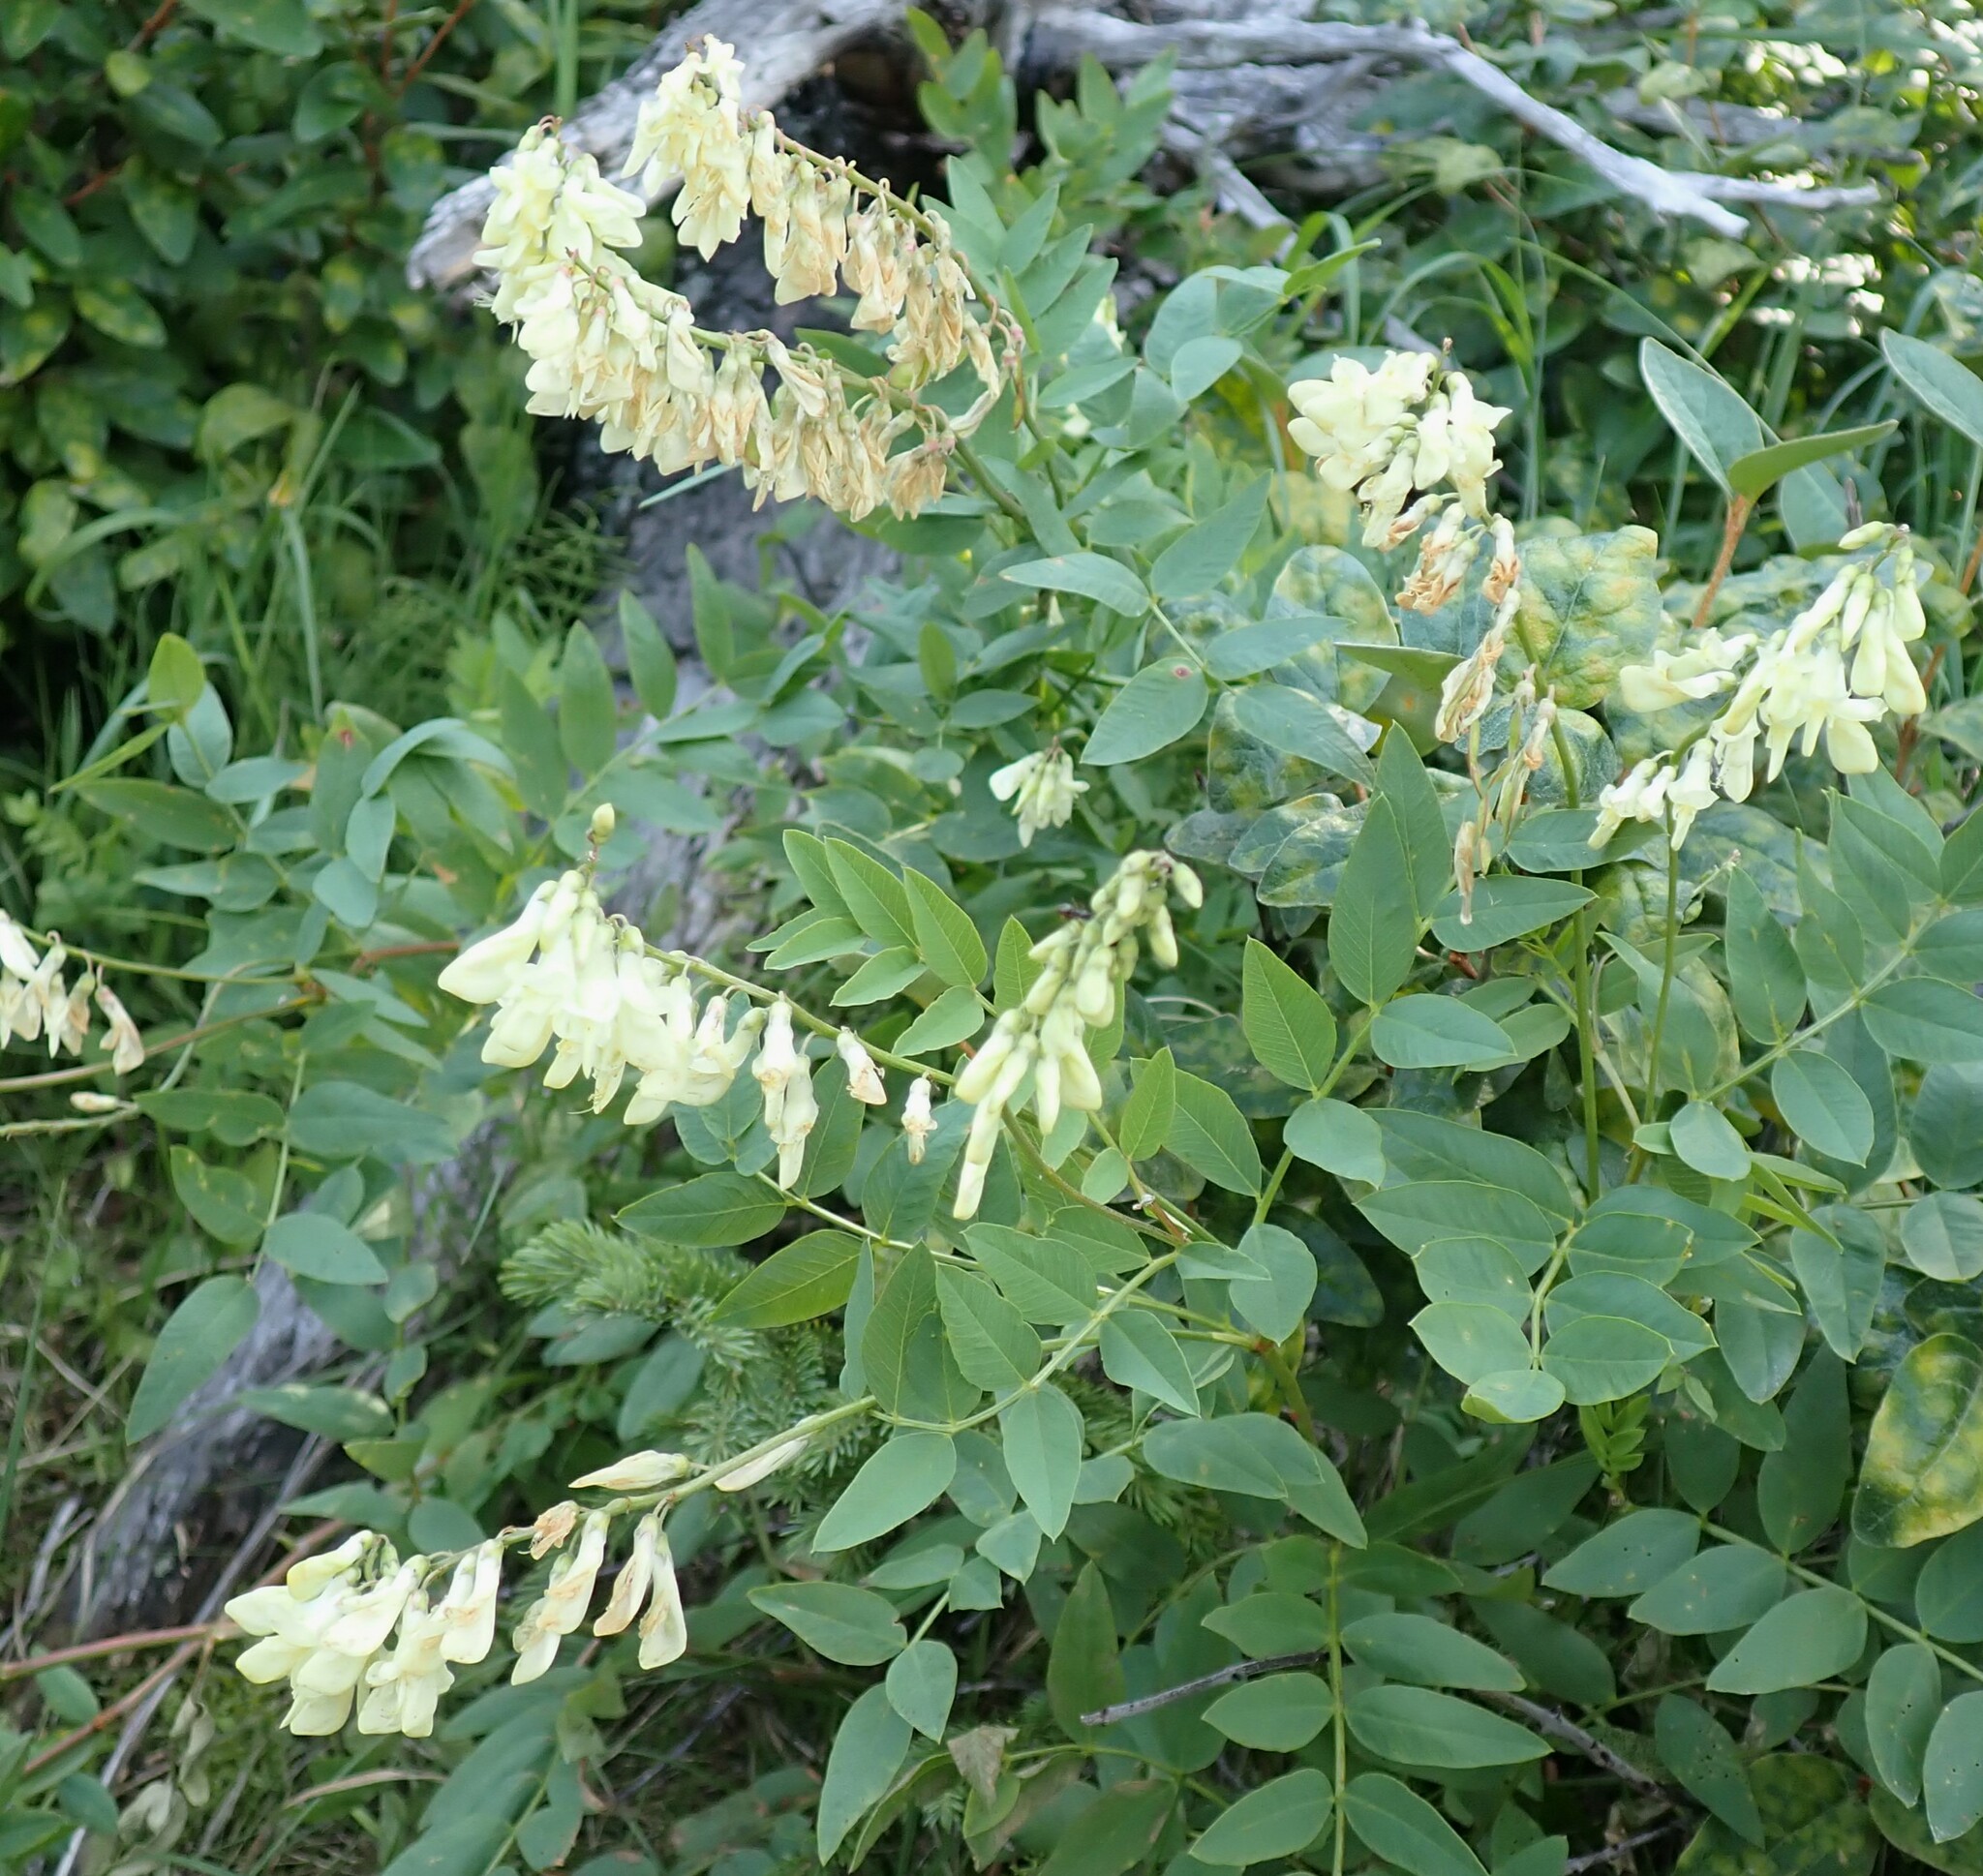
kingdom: Plantae
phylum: Tracheophyta
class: Magnoliopsida
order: Fabales
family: Fabaceae
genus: Hedysarum
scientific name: Hedysarum sulphurescens
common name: Sulphur hedysarum
